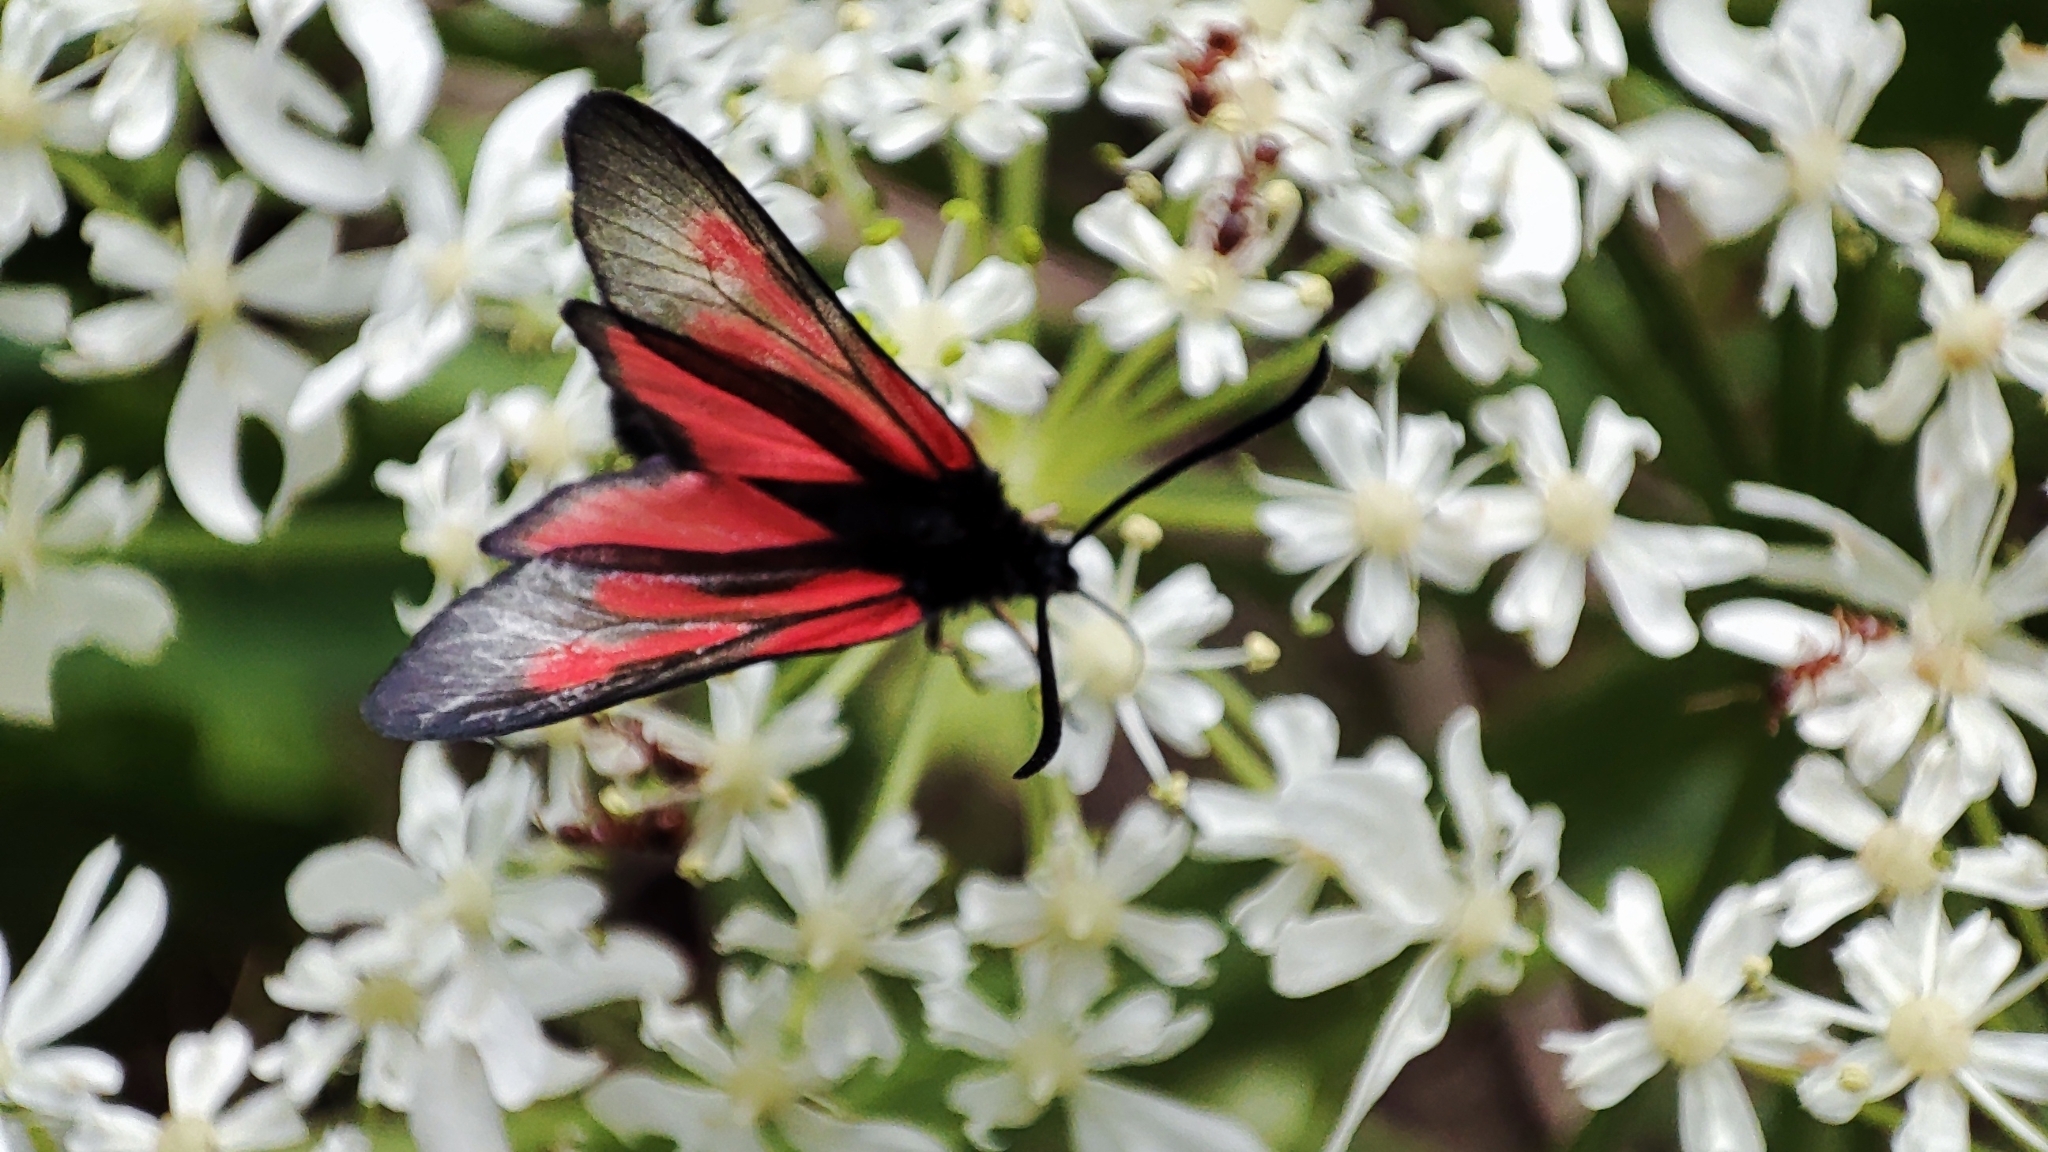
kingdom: Animalia
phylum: Arthropoda
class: Insecta
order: Lepidoptera
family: Zygaenidae
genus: Zygaena
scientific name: Zygaena osterodensis
